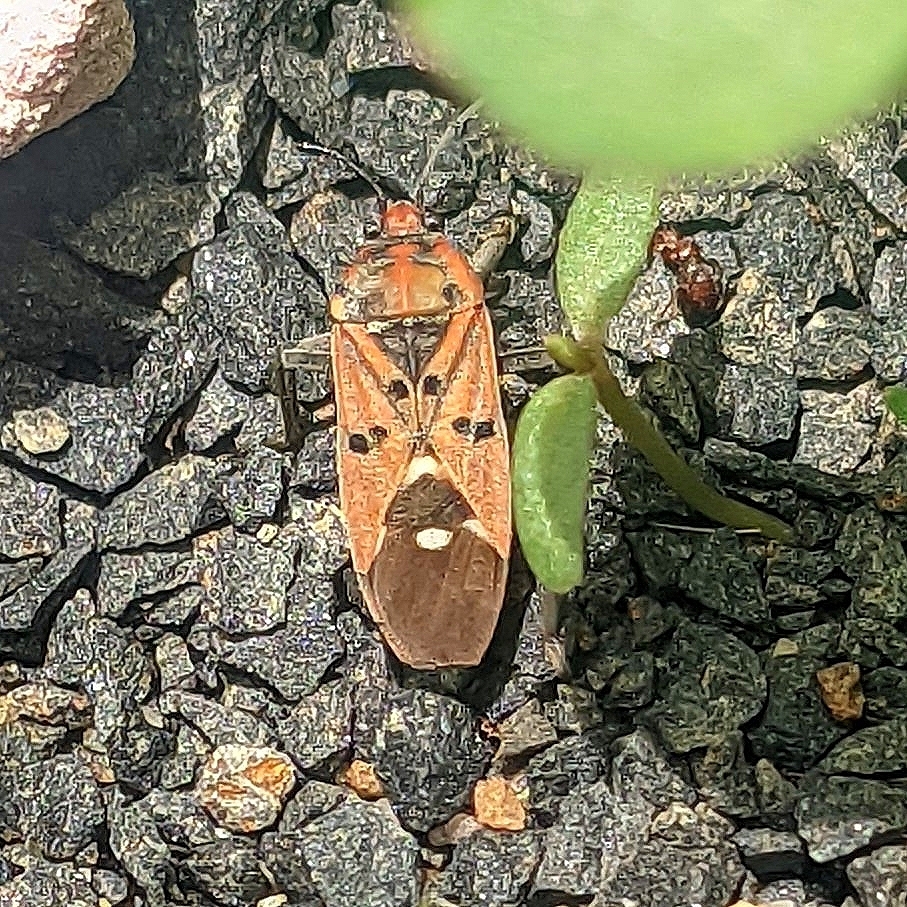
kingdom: Animalia
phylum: Arthropoda
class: Insecta
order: Hemiptera
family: Lygaeidae
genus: Spilostethus
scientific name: Spilostethus pandurus
